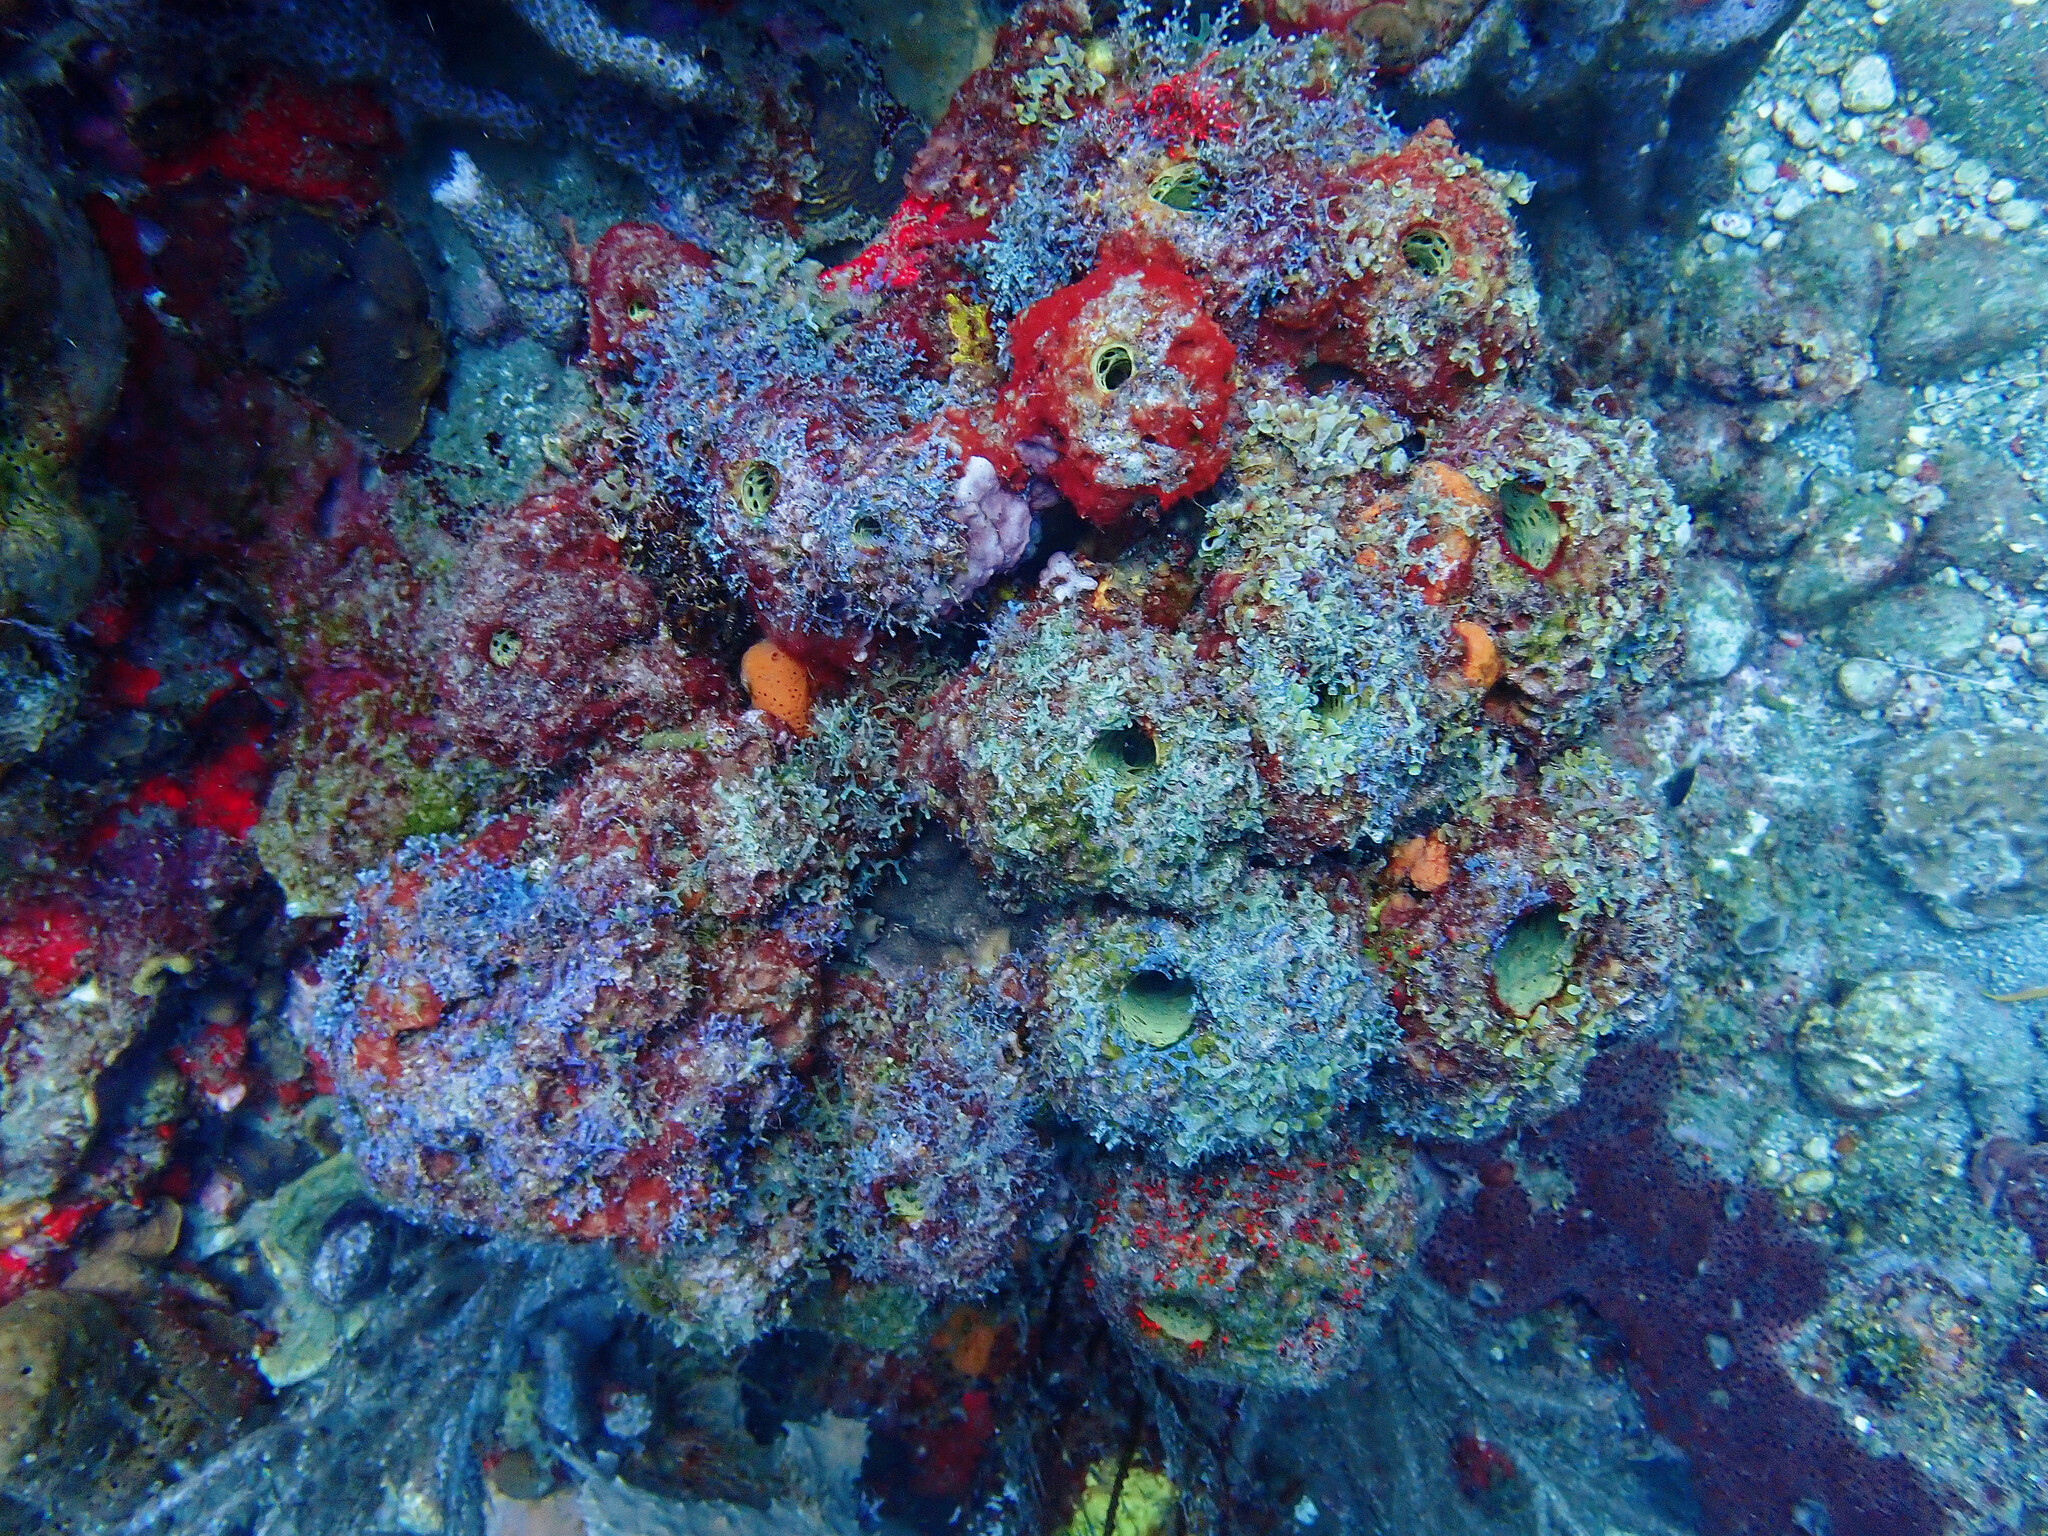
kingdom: Animalia
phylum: Porifera
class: Demospongiae
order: Verongiida
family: Aplysinidae
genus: Verongula
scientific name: Verongula rigida
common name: Pitted sponge
